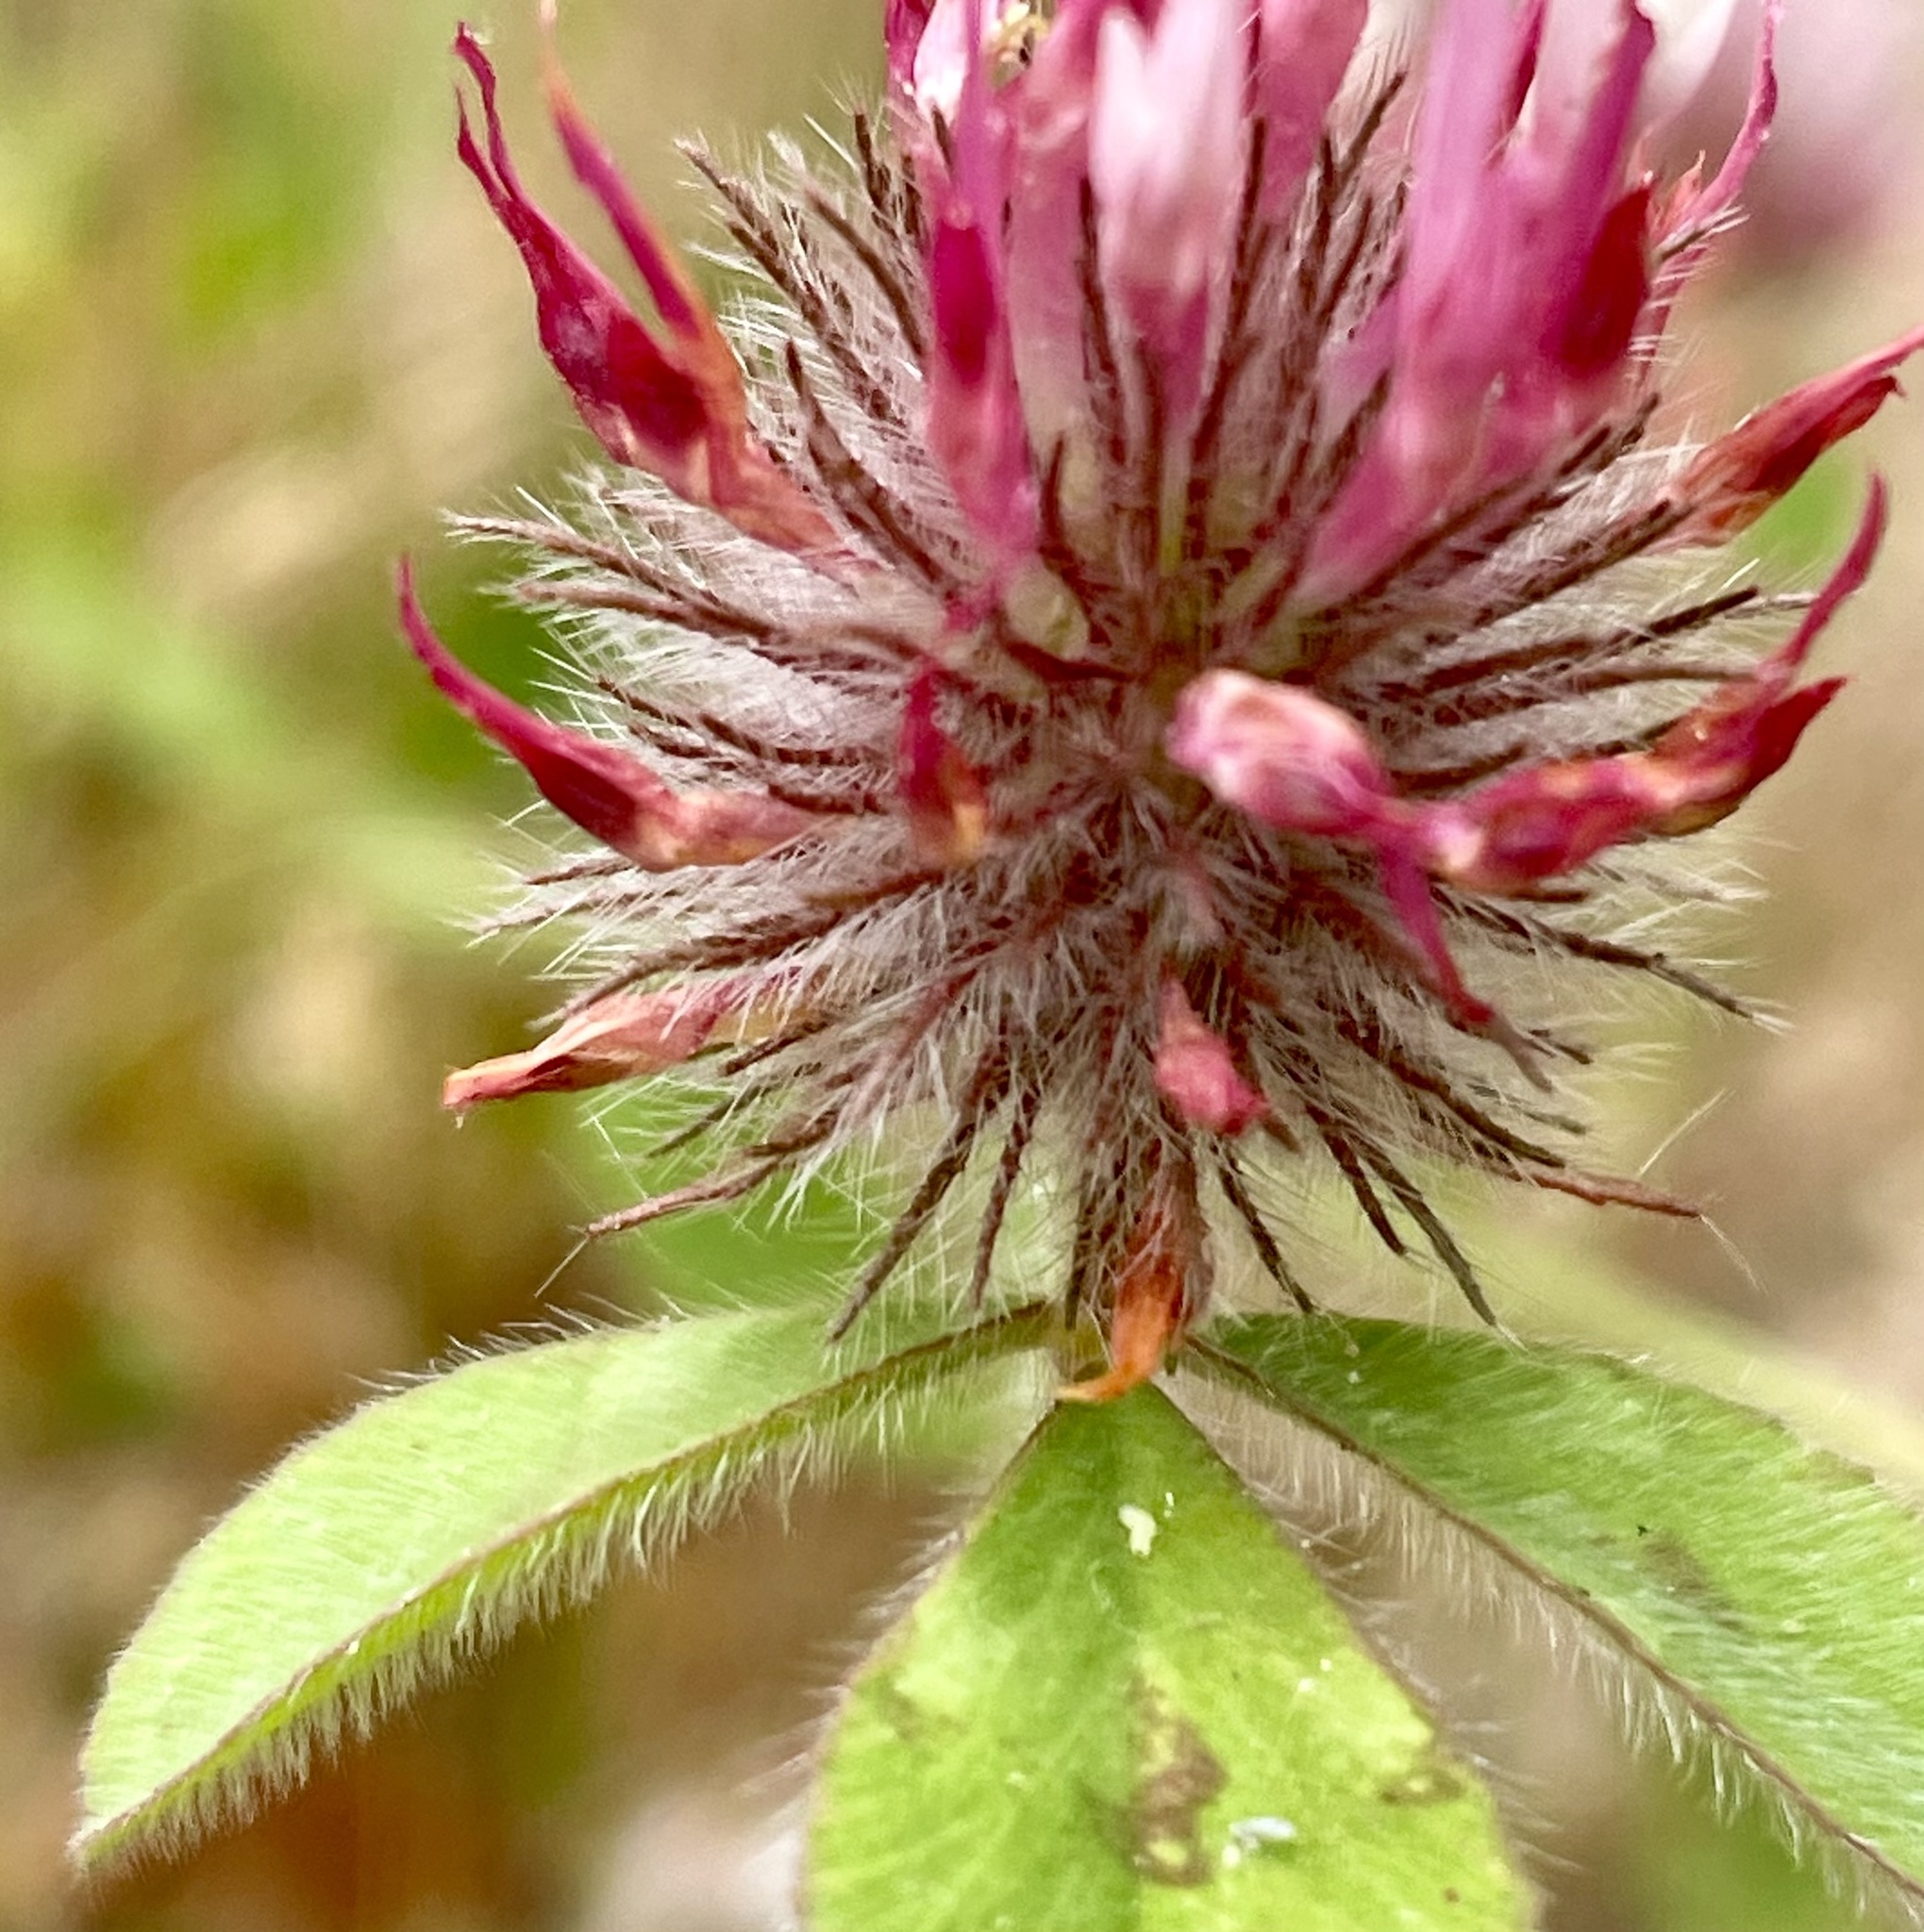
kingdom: Plantae
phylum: Tracheophyta
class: Magnoliopsida
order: Fabales
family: Fabaceae
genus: Trifolium
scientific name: Trifolium hirtum
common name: Rose clover
